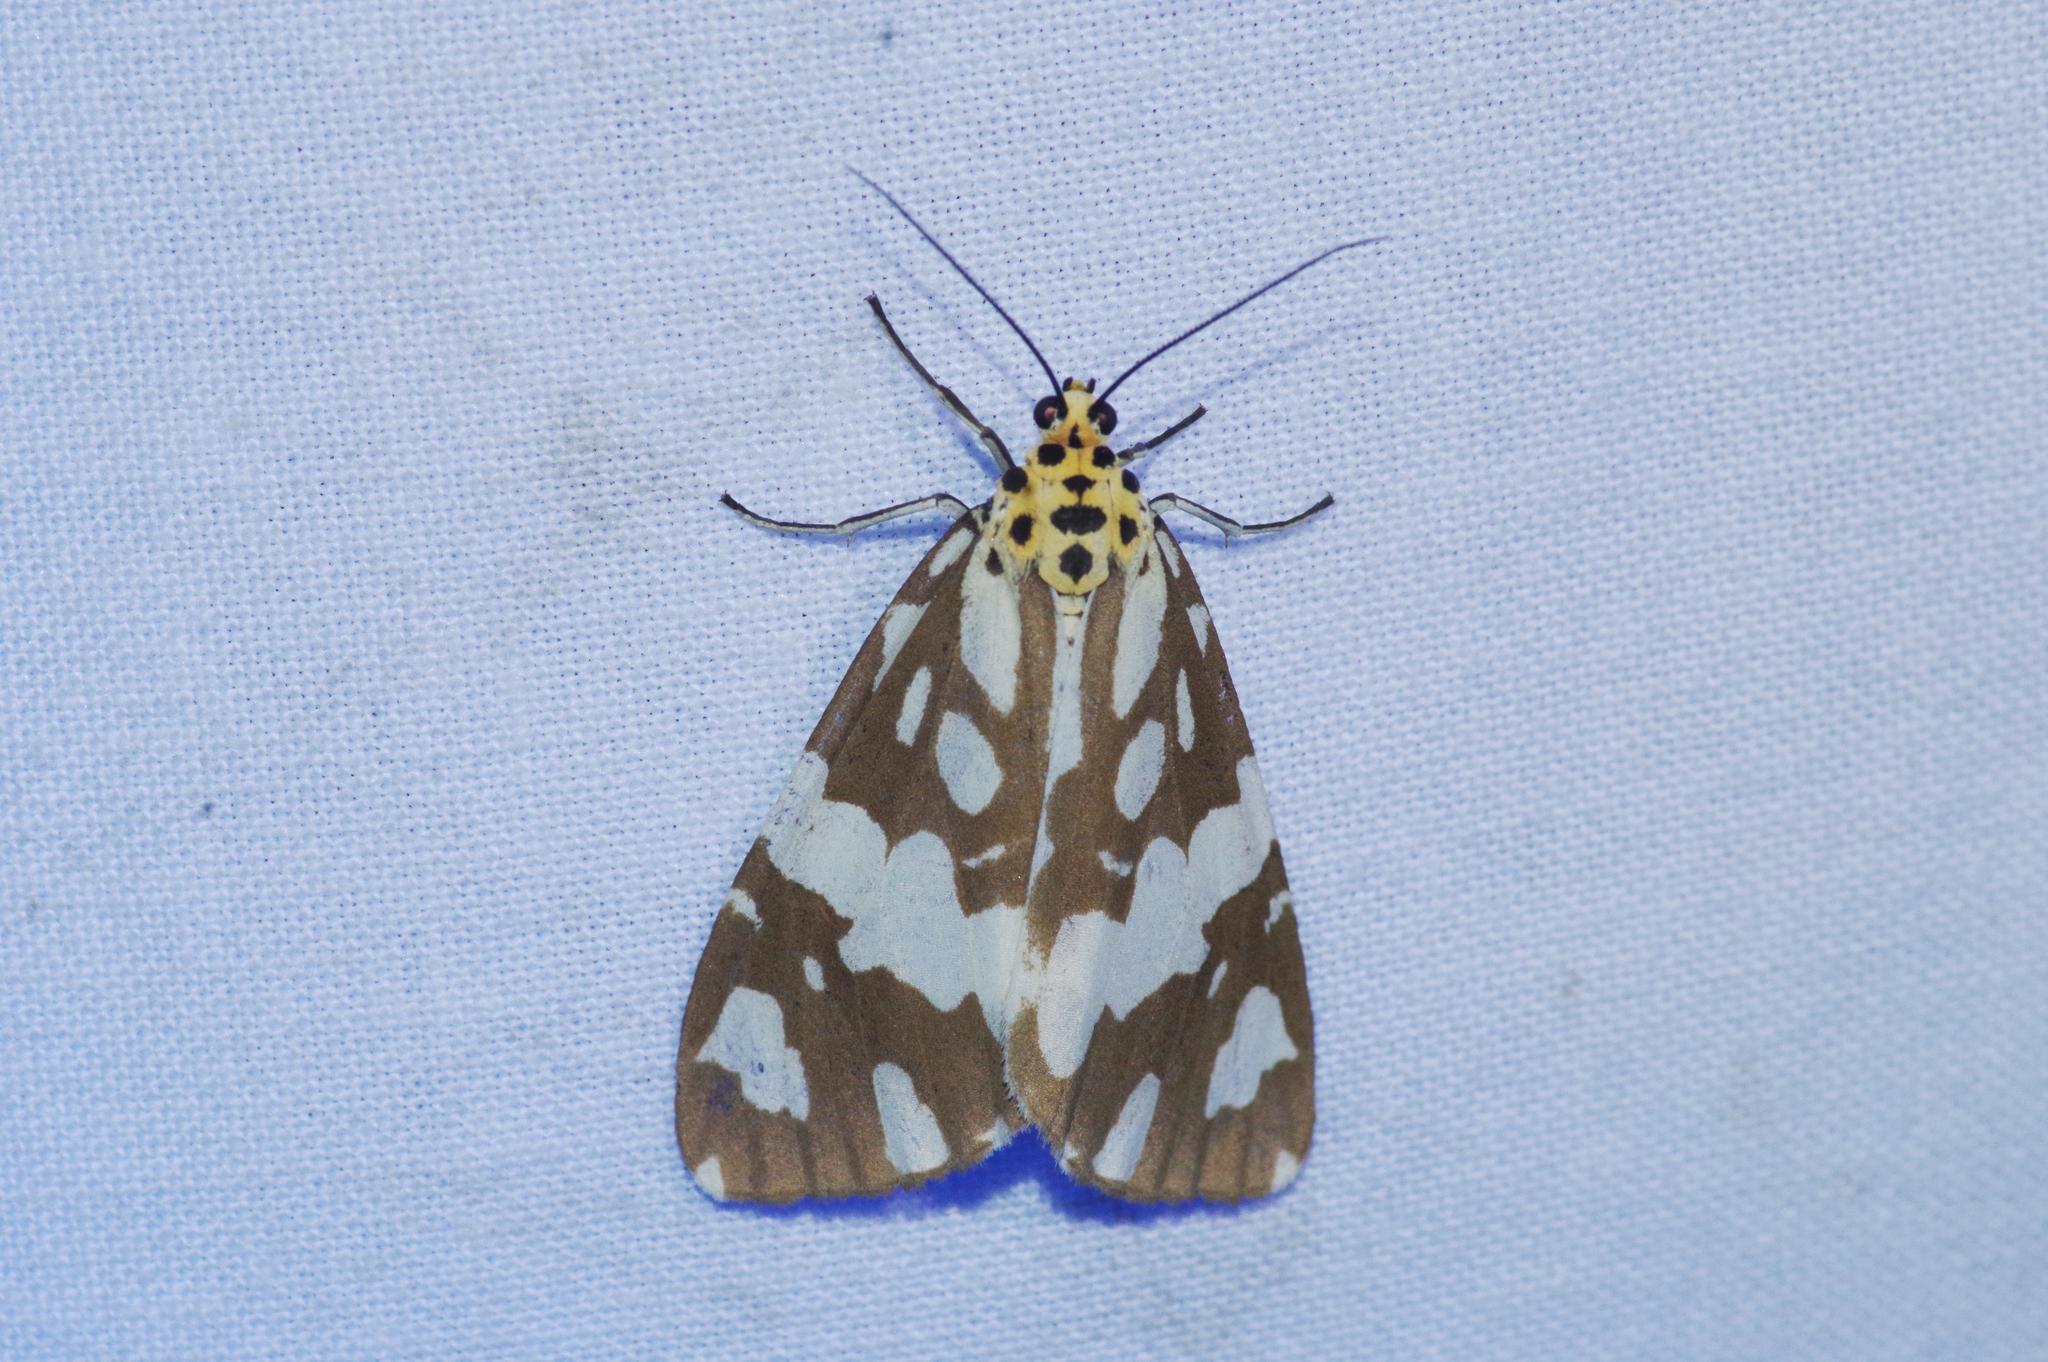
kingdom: Animalia
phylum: Arthropoda
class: Insecta
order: Lepidoptera
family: Erebidae
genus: Utetheisa
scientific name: Utetheisa inconstans
